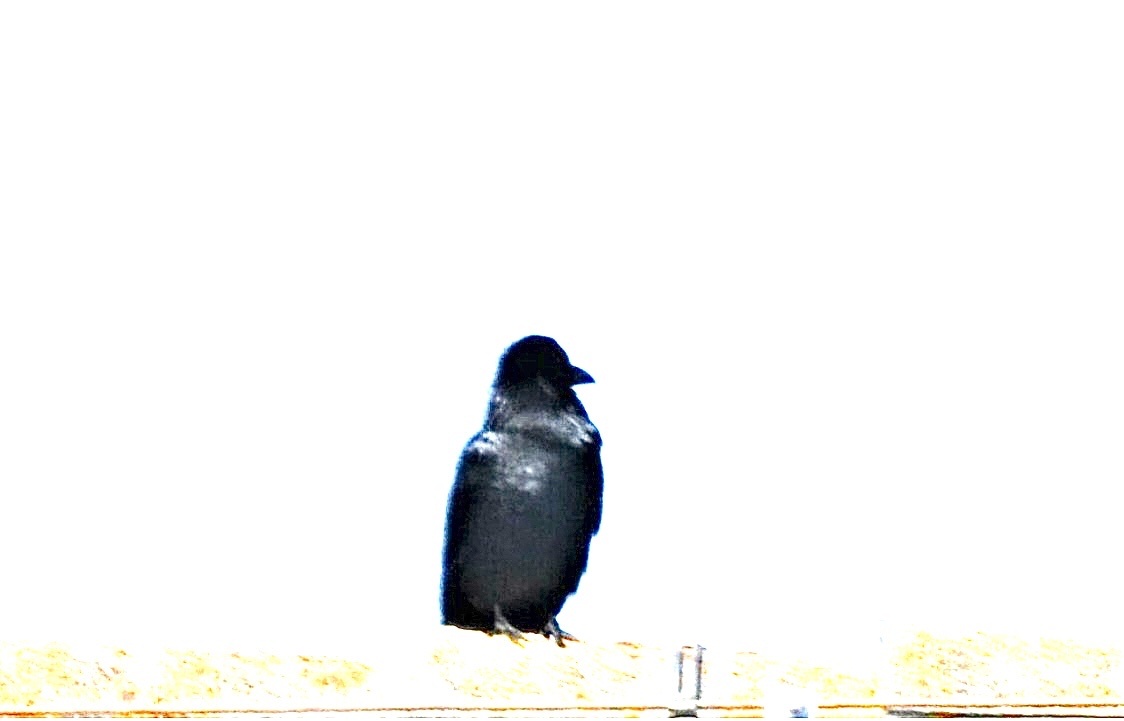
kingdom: Animalia
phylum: Chordata
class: Aves
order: Passeriformes
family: Corvidae
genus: Corvus
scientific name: Corvus
